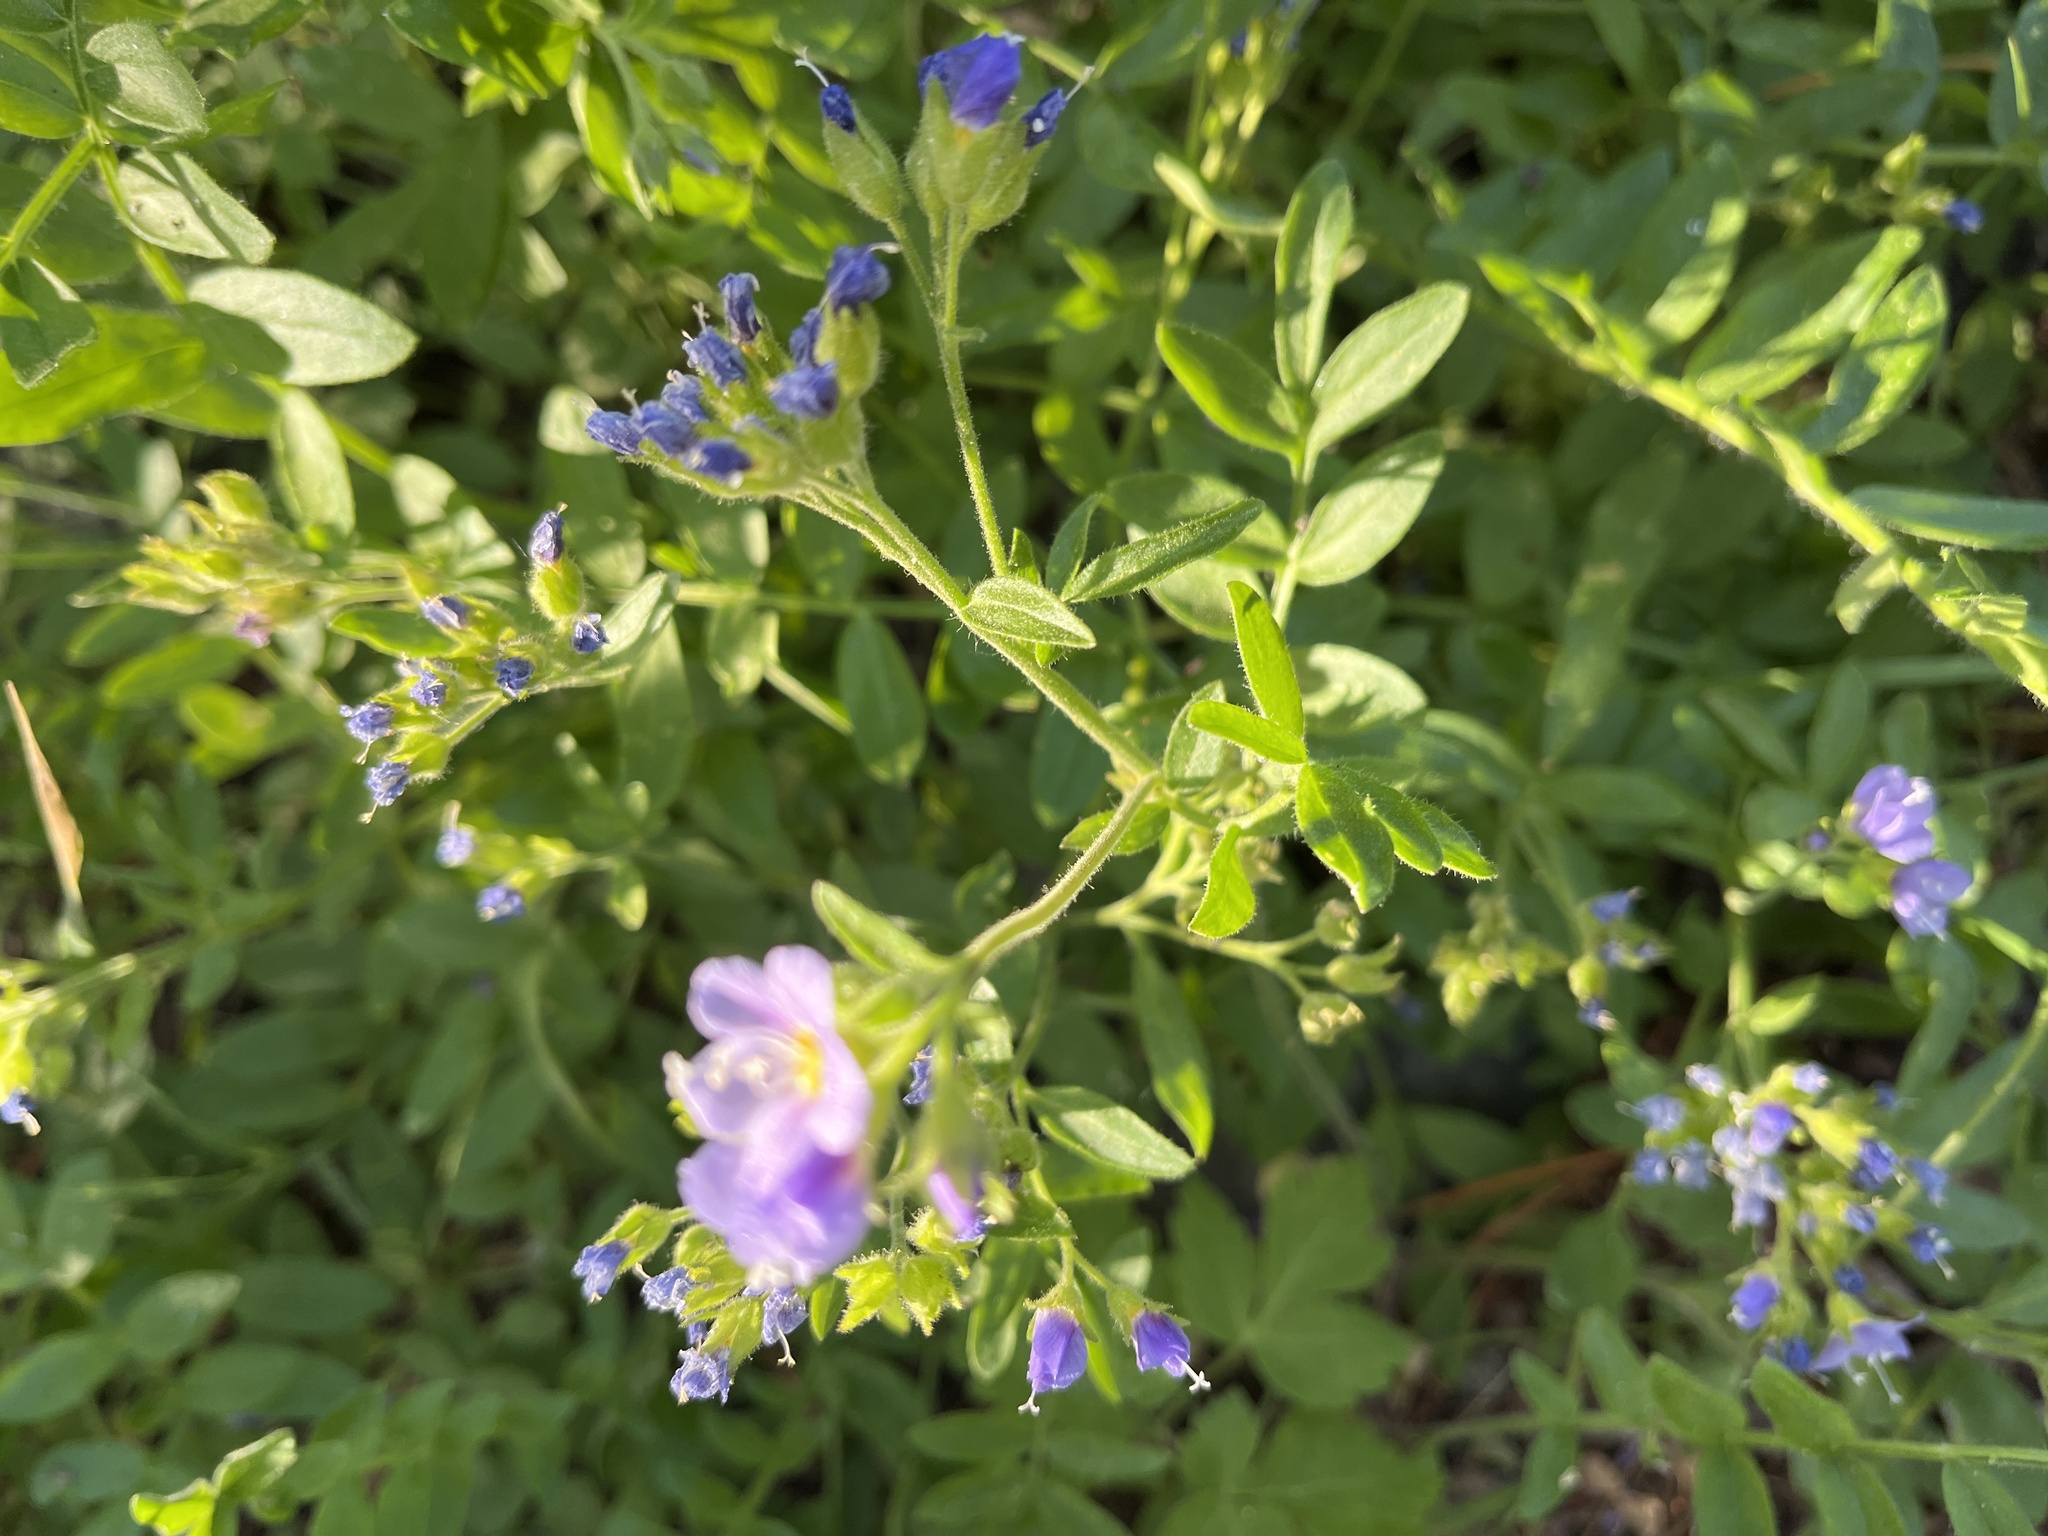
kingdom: Plantae
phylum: Tracheophyta
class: Magnoliopsida
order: Ericales
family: Polemoniaceae
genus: Polemonium
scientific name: Polemonium californicum
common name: California jacob's ladder
